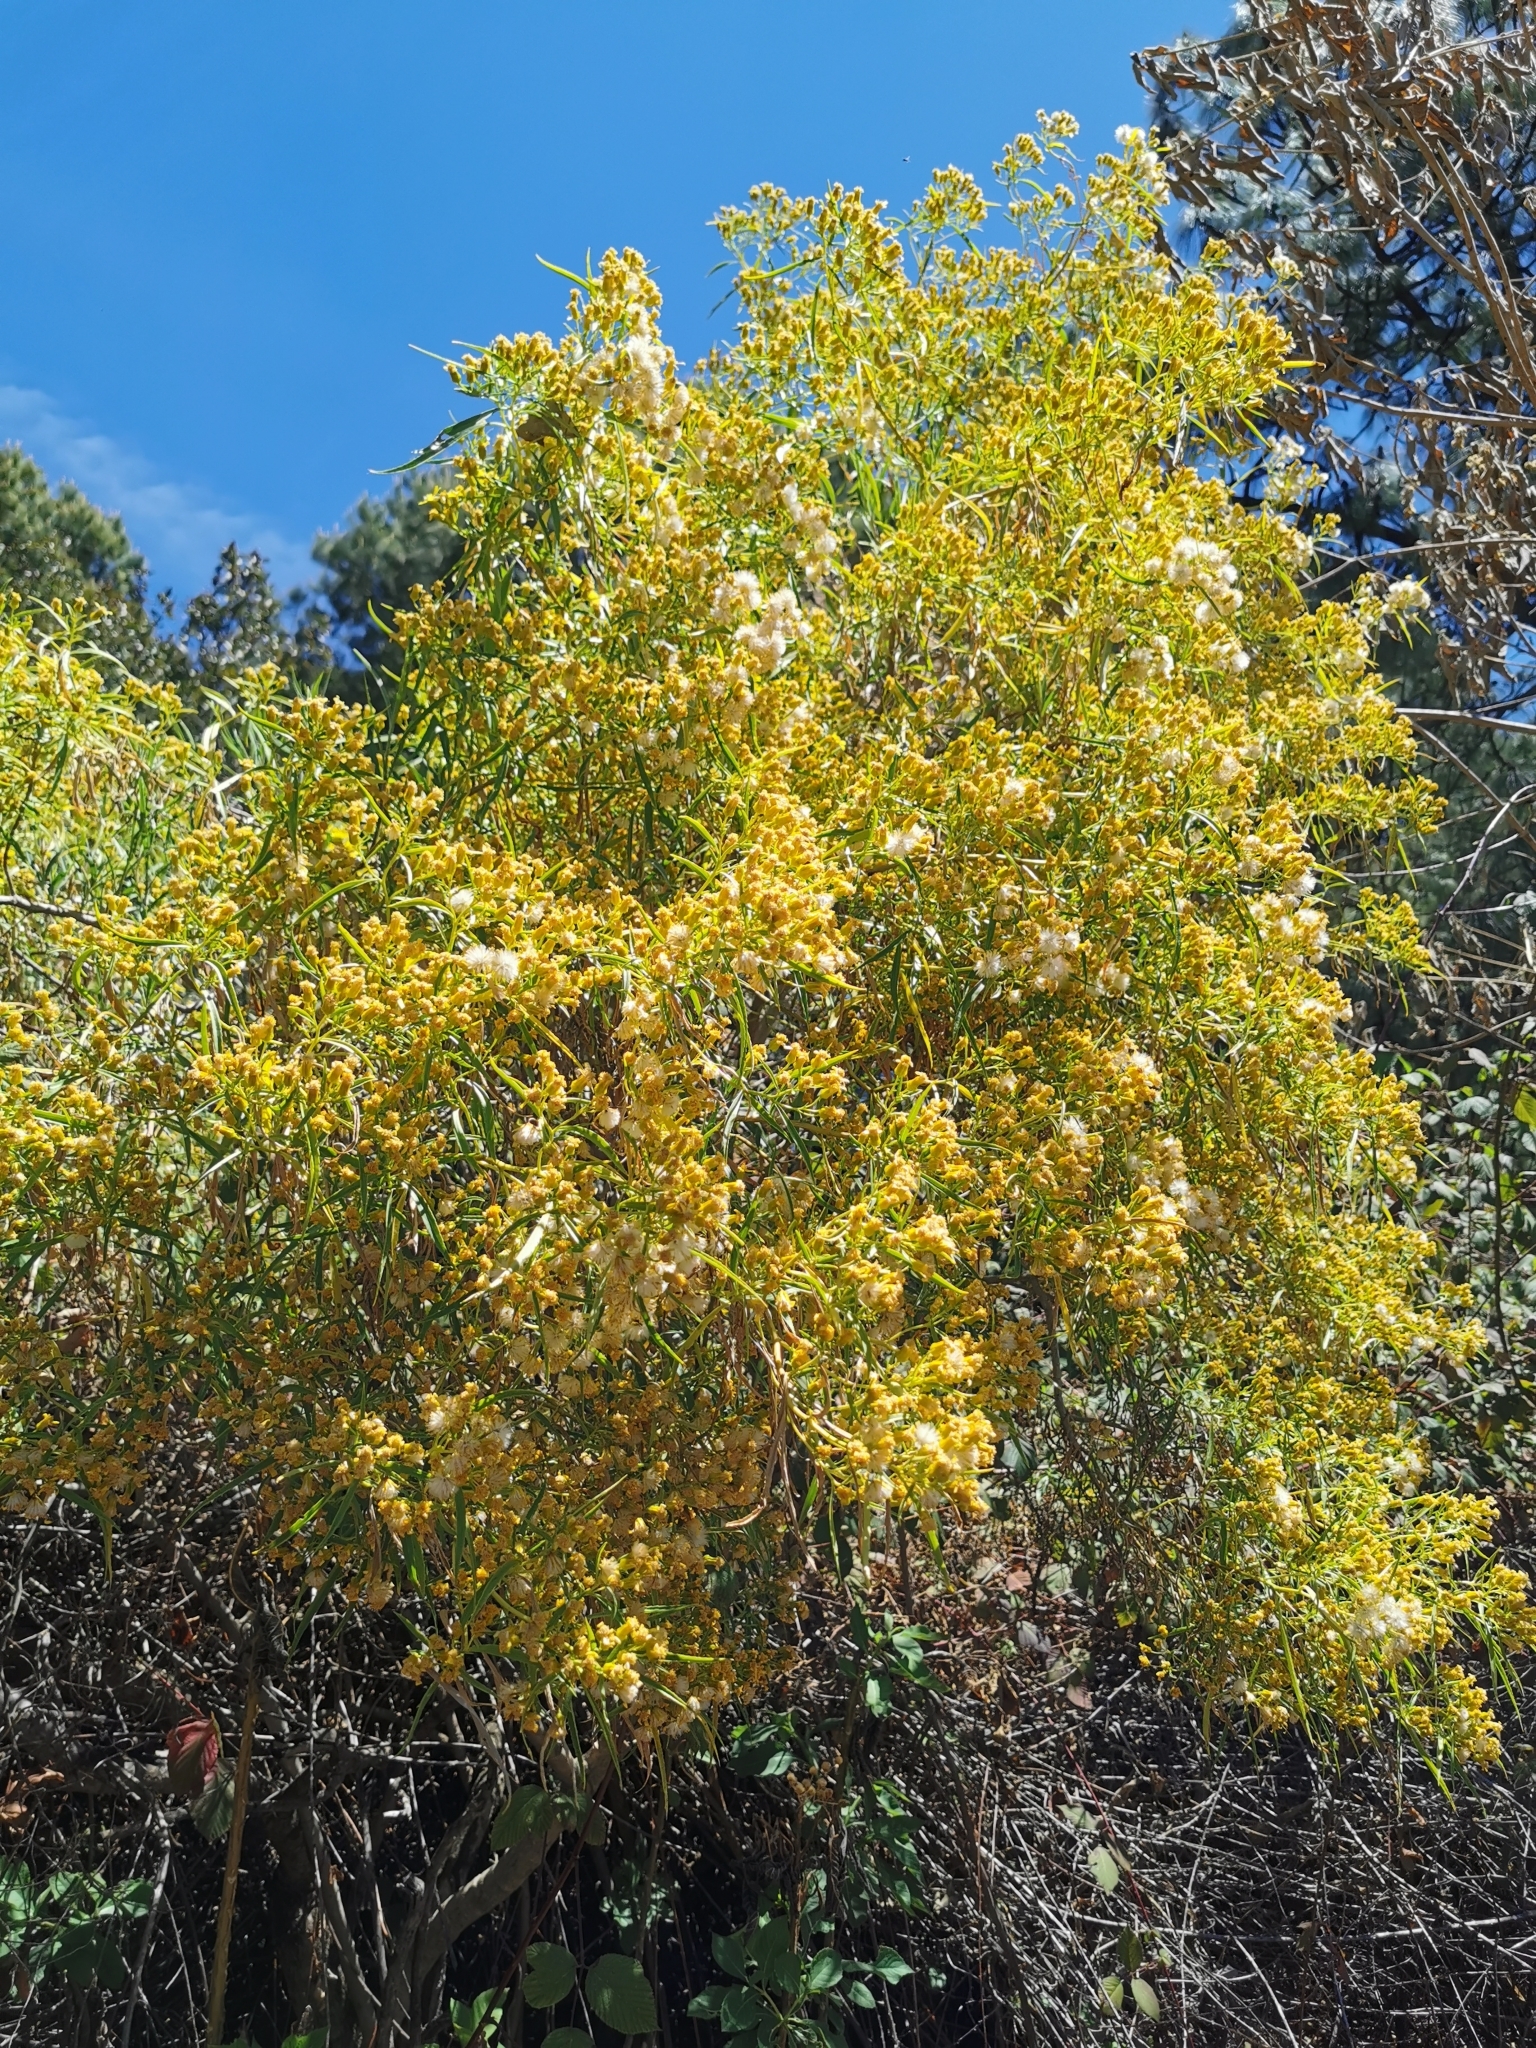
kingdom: Plantae
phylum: Tracheophyta
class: Magnoliopsida
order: Asterales
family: Asteraceae
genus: Barkleyanthus
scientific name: Barkleyanthus salicifolius
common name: Willow ragwort
